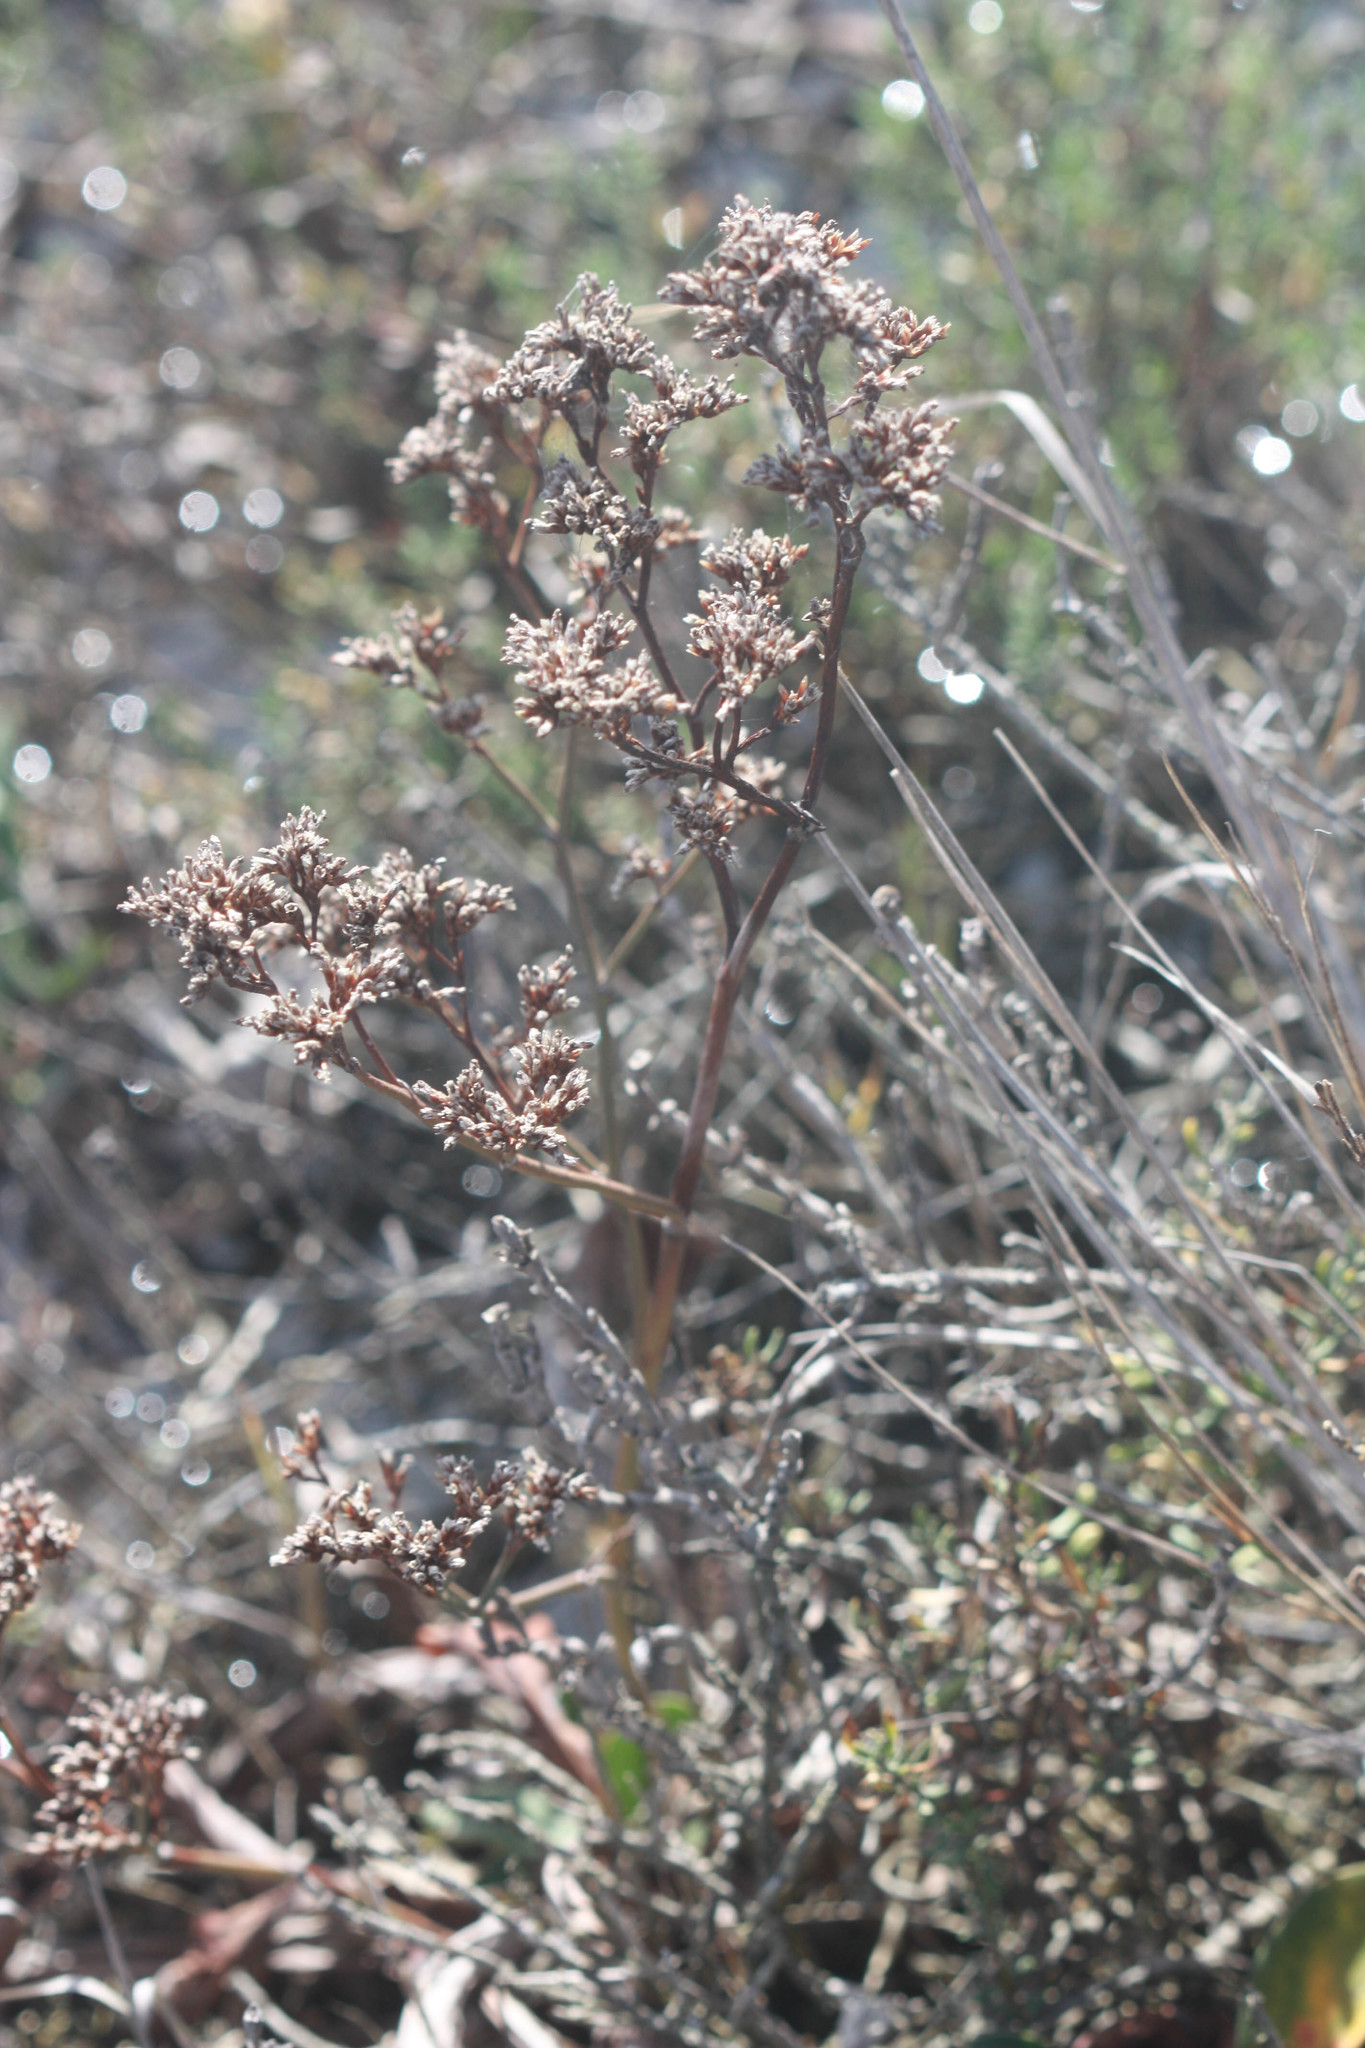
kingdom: Plantae
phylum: Tracheophyta
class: Magnoliopsida
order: Caryophyllales
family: Plumbaginaceae
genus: Limonium
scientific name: Limonium californicum
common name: Marsh-rosemary
